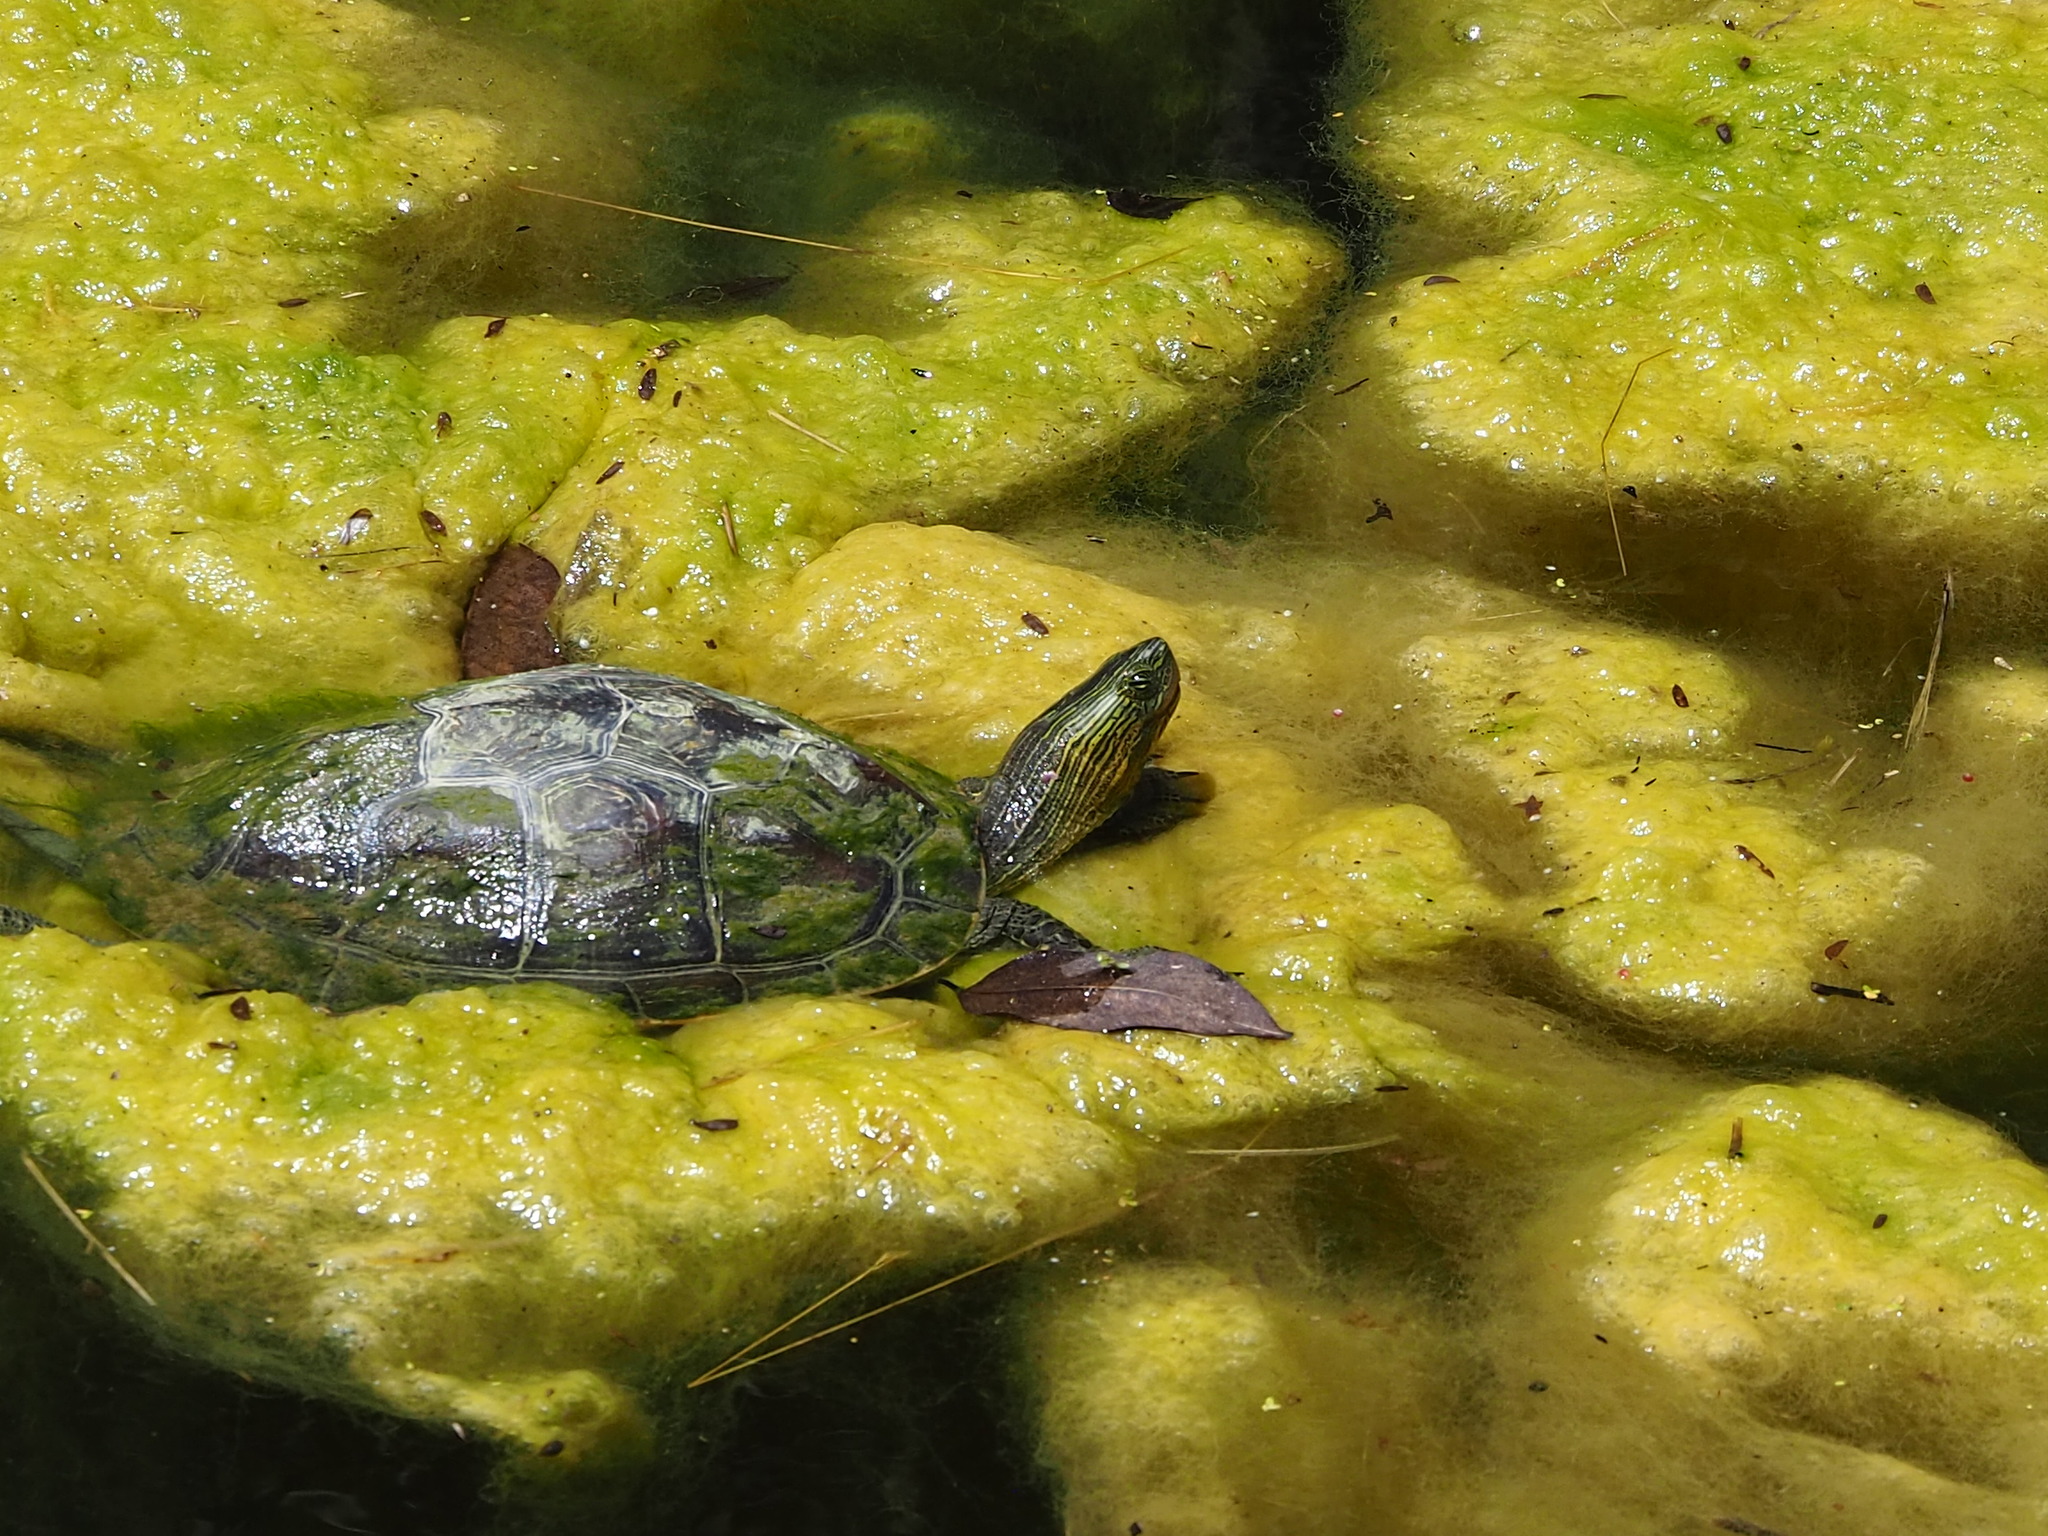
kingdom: Animalia
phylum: Chordata
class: Testudines
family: Geoemydidae
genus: Mauremys
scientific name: Mauremys sinensis
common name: Chinese stripe-necked turtle
